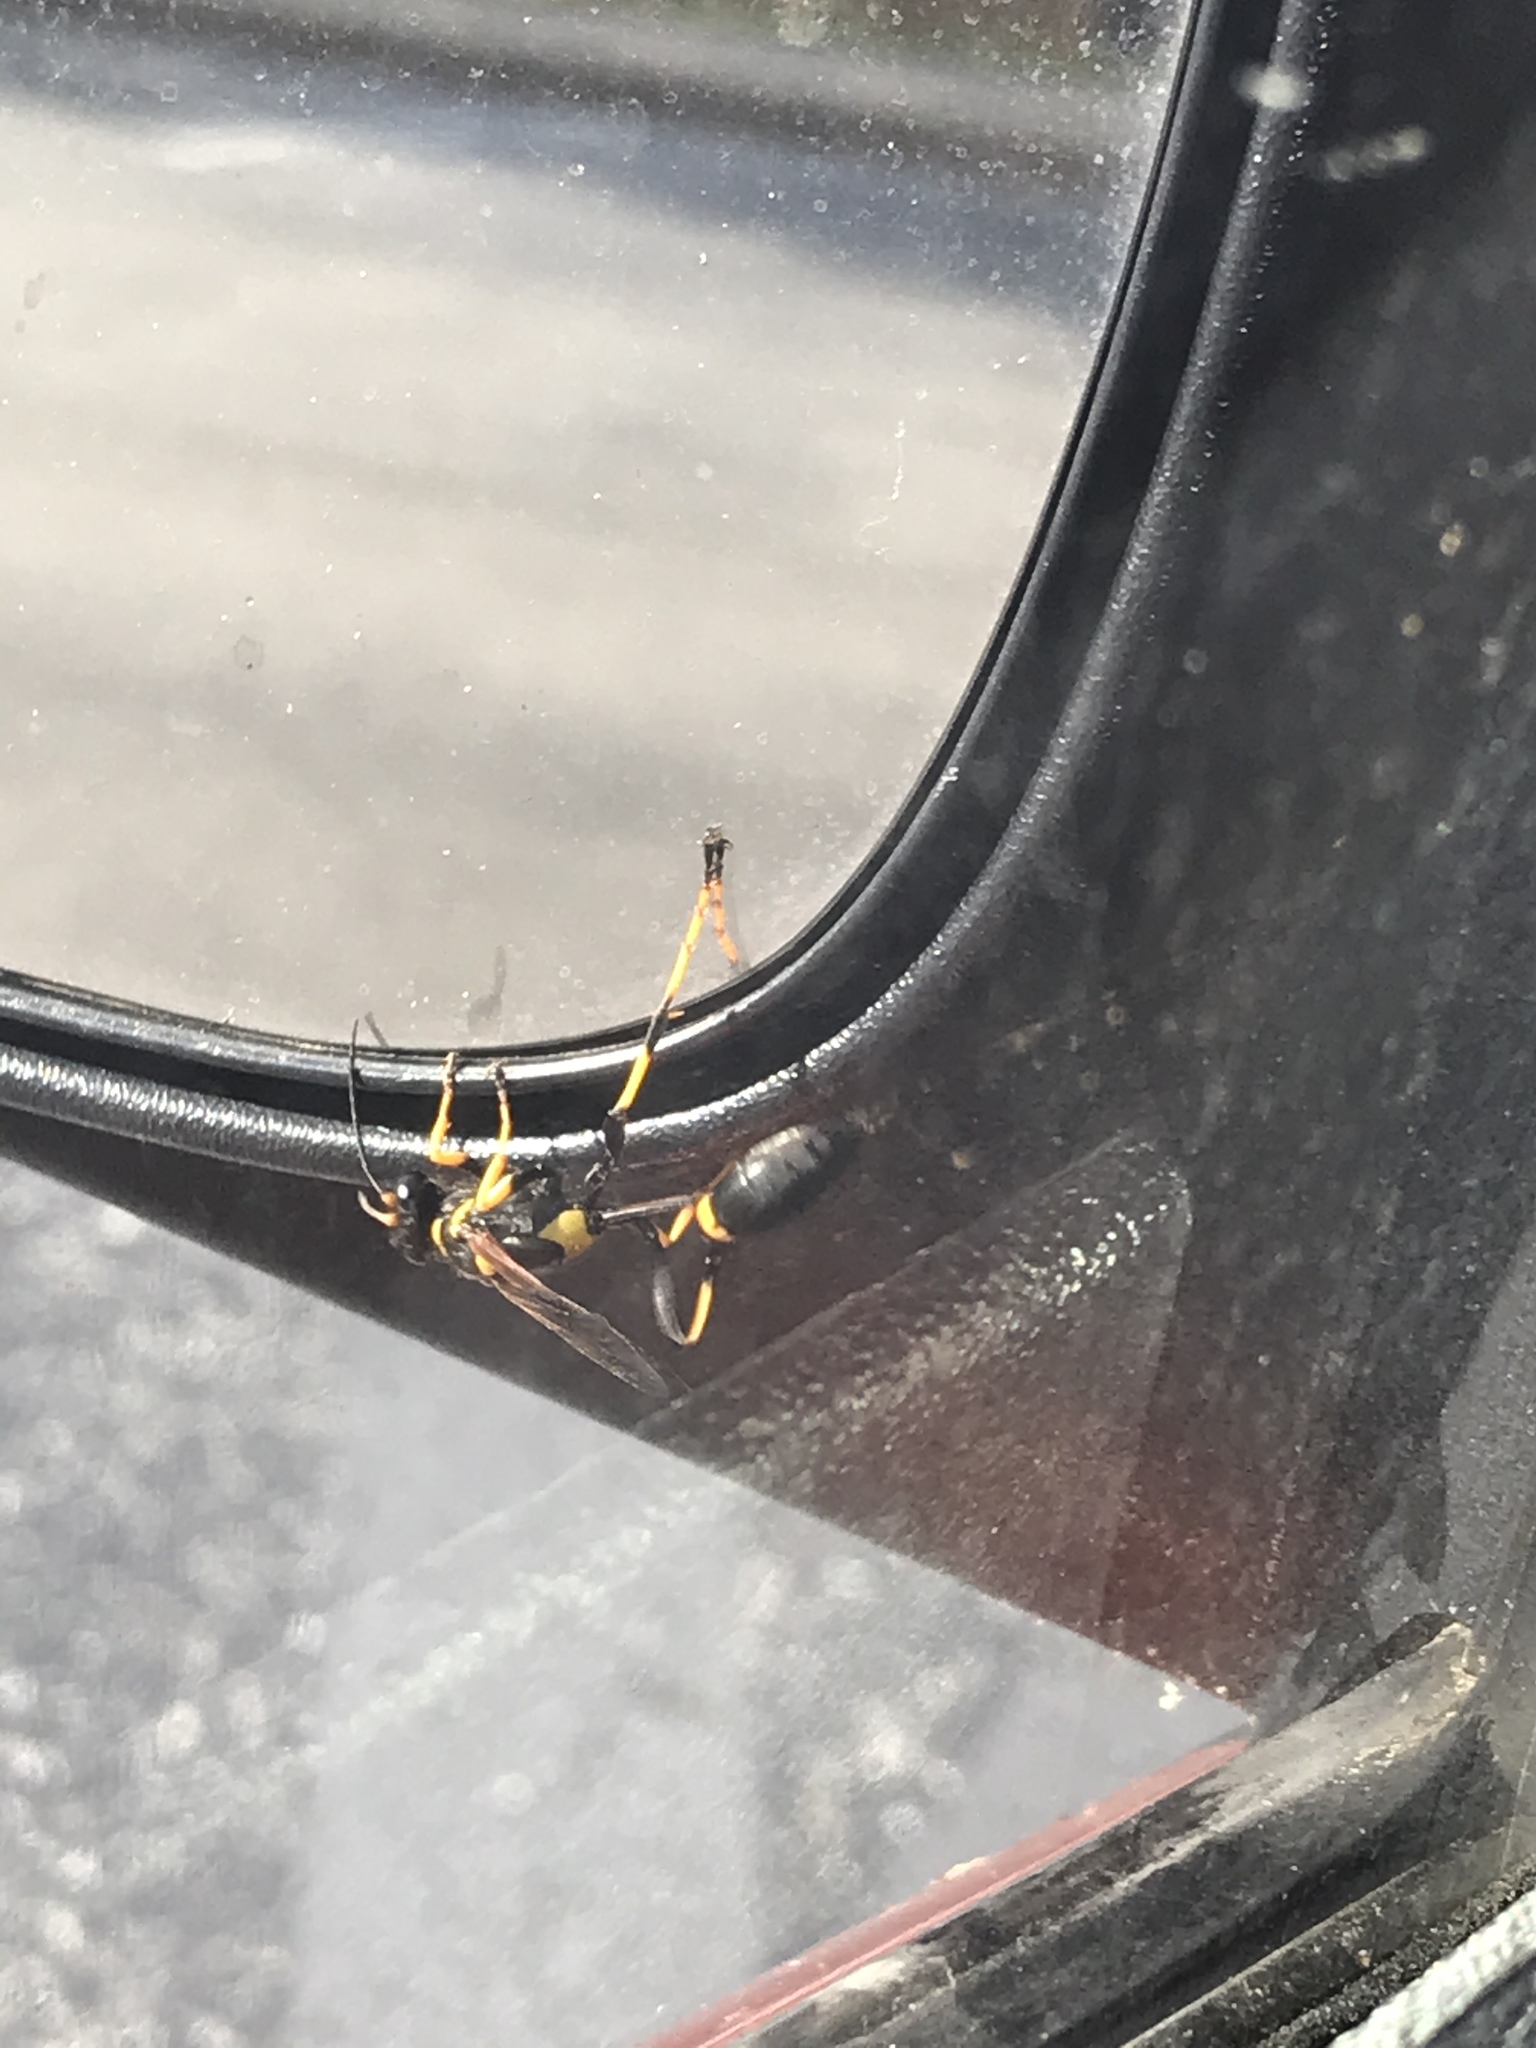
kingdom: Animalia
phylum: Arthropoda
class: Insecta
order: Hymenoptera
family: Sphecidae
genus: Sceliphron
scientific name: Sceliphron caementarium
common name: Mud dauber
